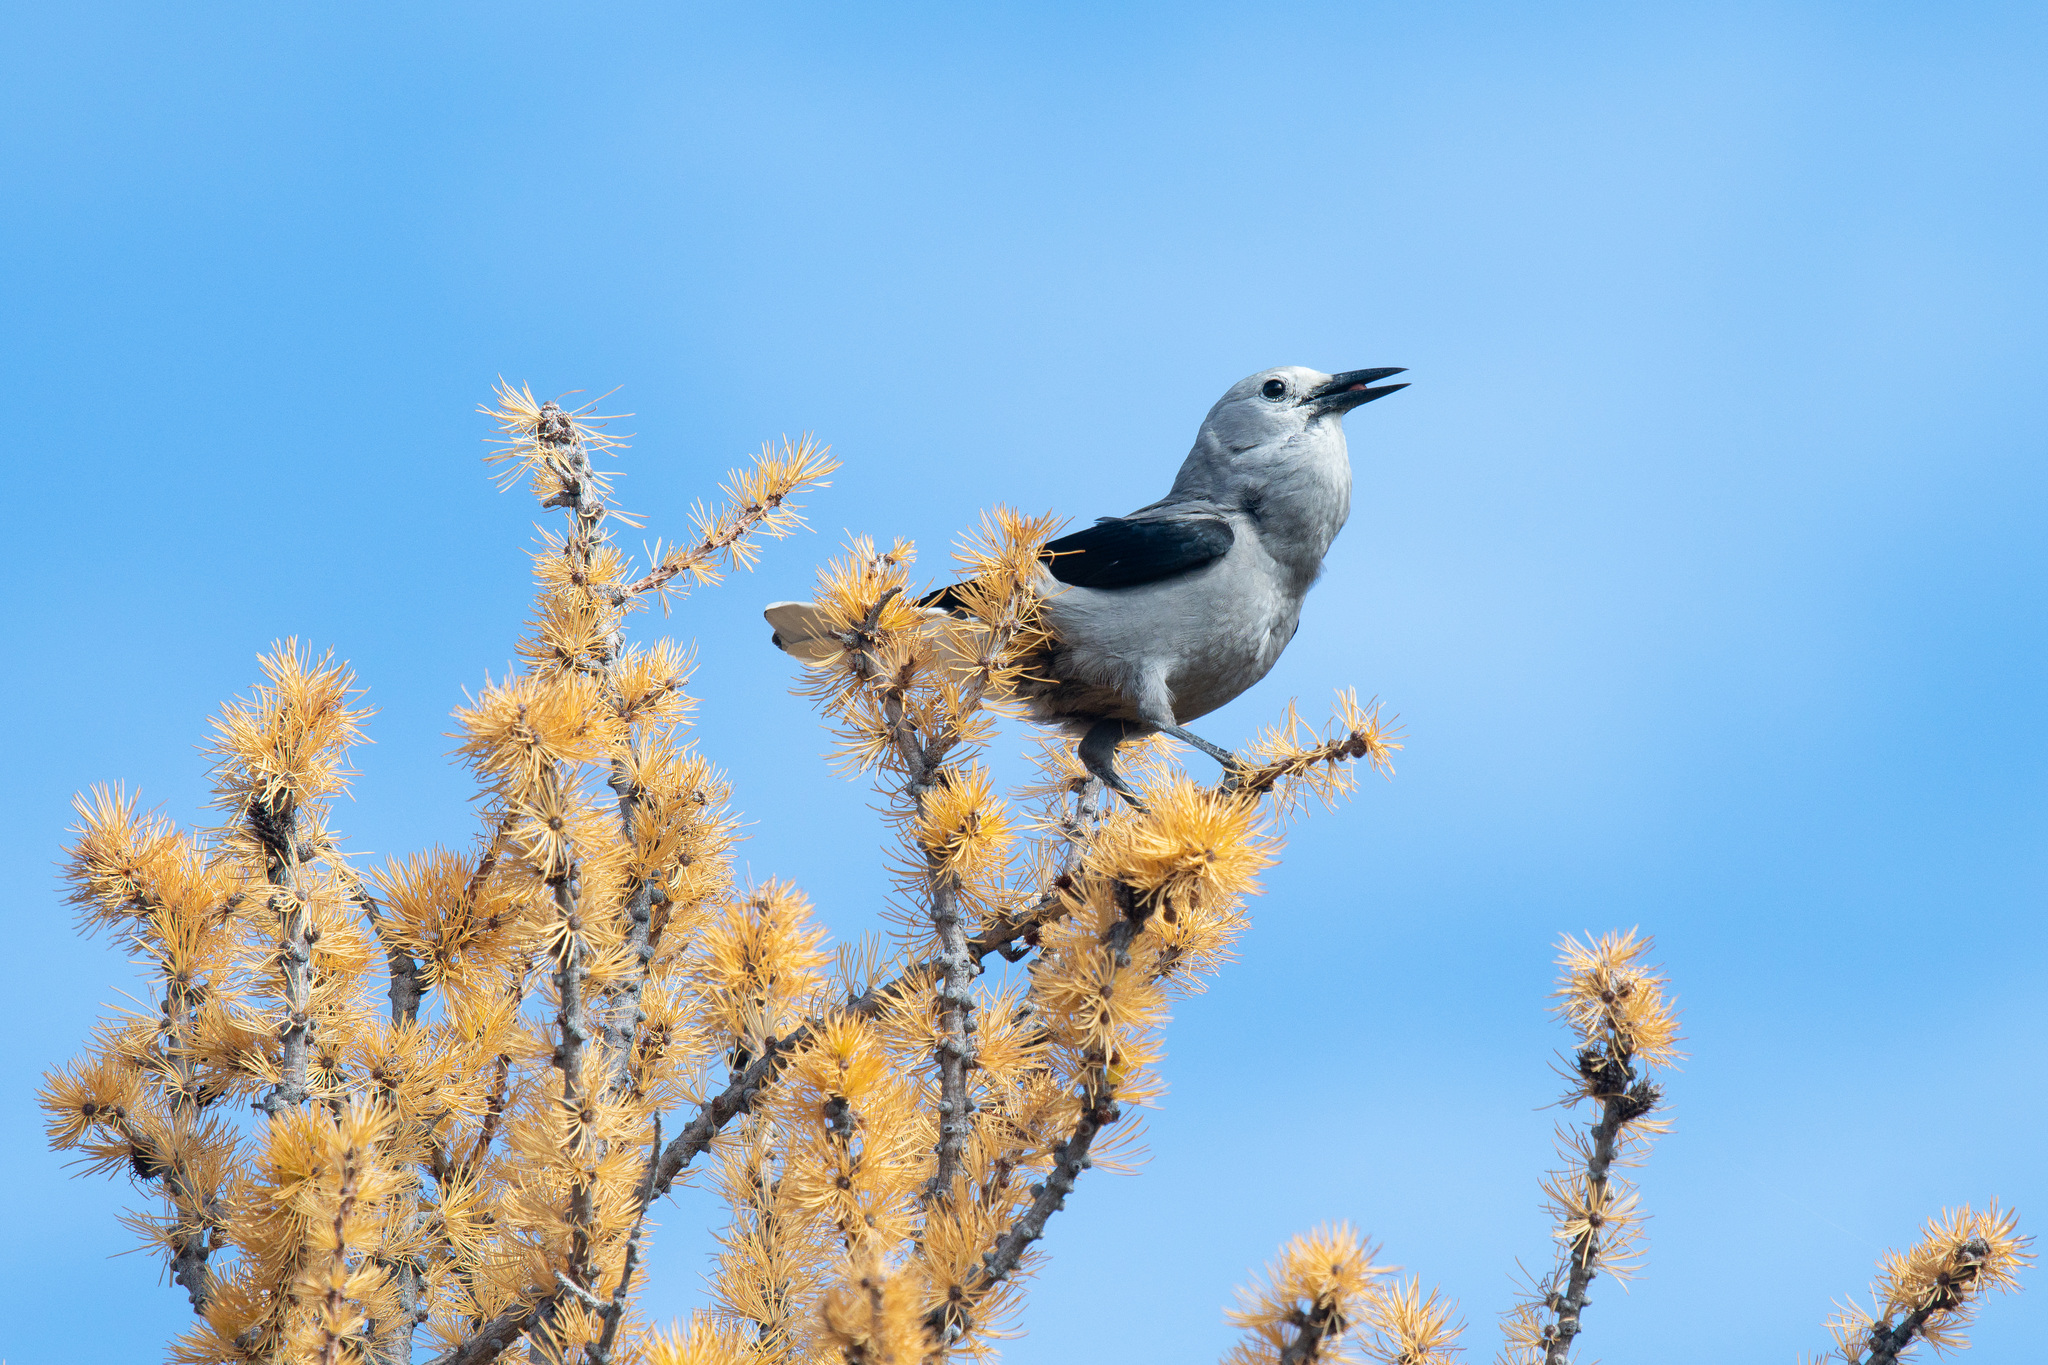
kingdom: Animalia
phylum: Chordata
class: Aves
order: Passeriformes
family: Corvidae
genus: Nucifraga
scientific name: Nucifraga columbiana
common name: Clark's nutcracker
